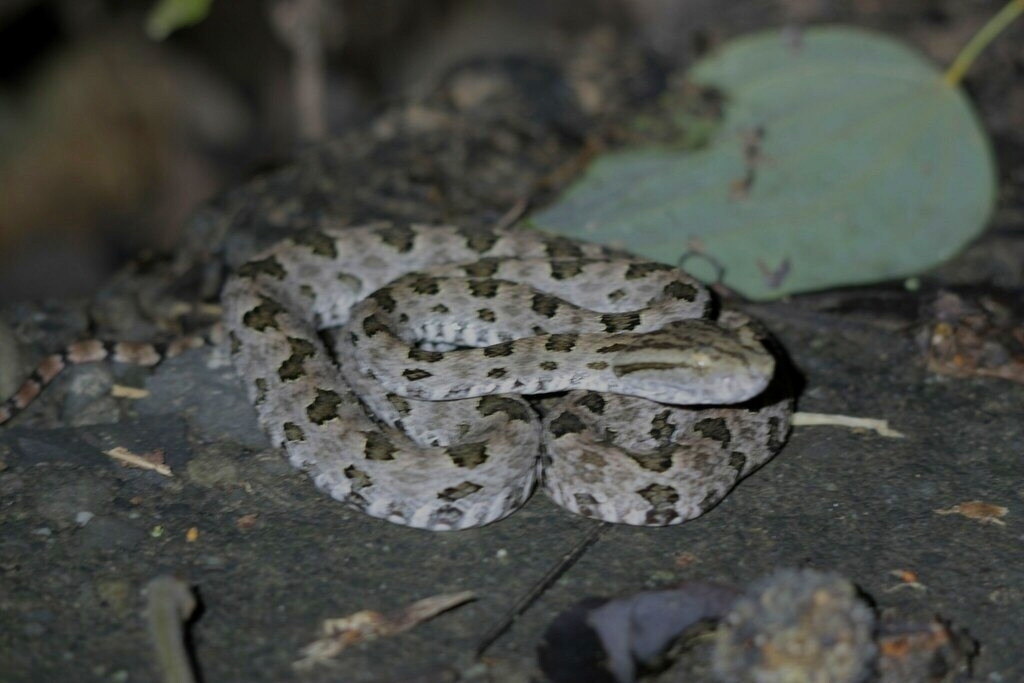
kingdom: Animalia
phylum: Chordata
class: Squamata
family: Viperidae
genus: Protobothrops
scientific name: Protobothrops mucrosquamatus
